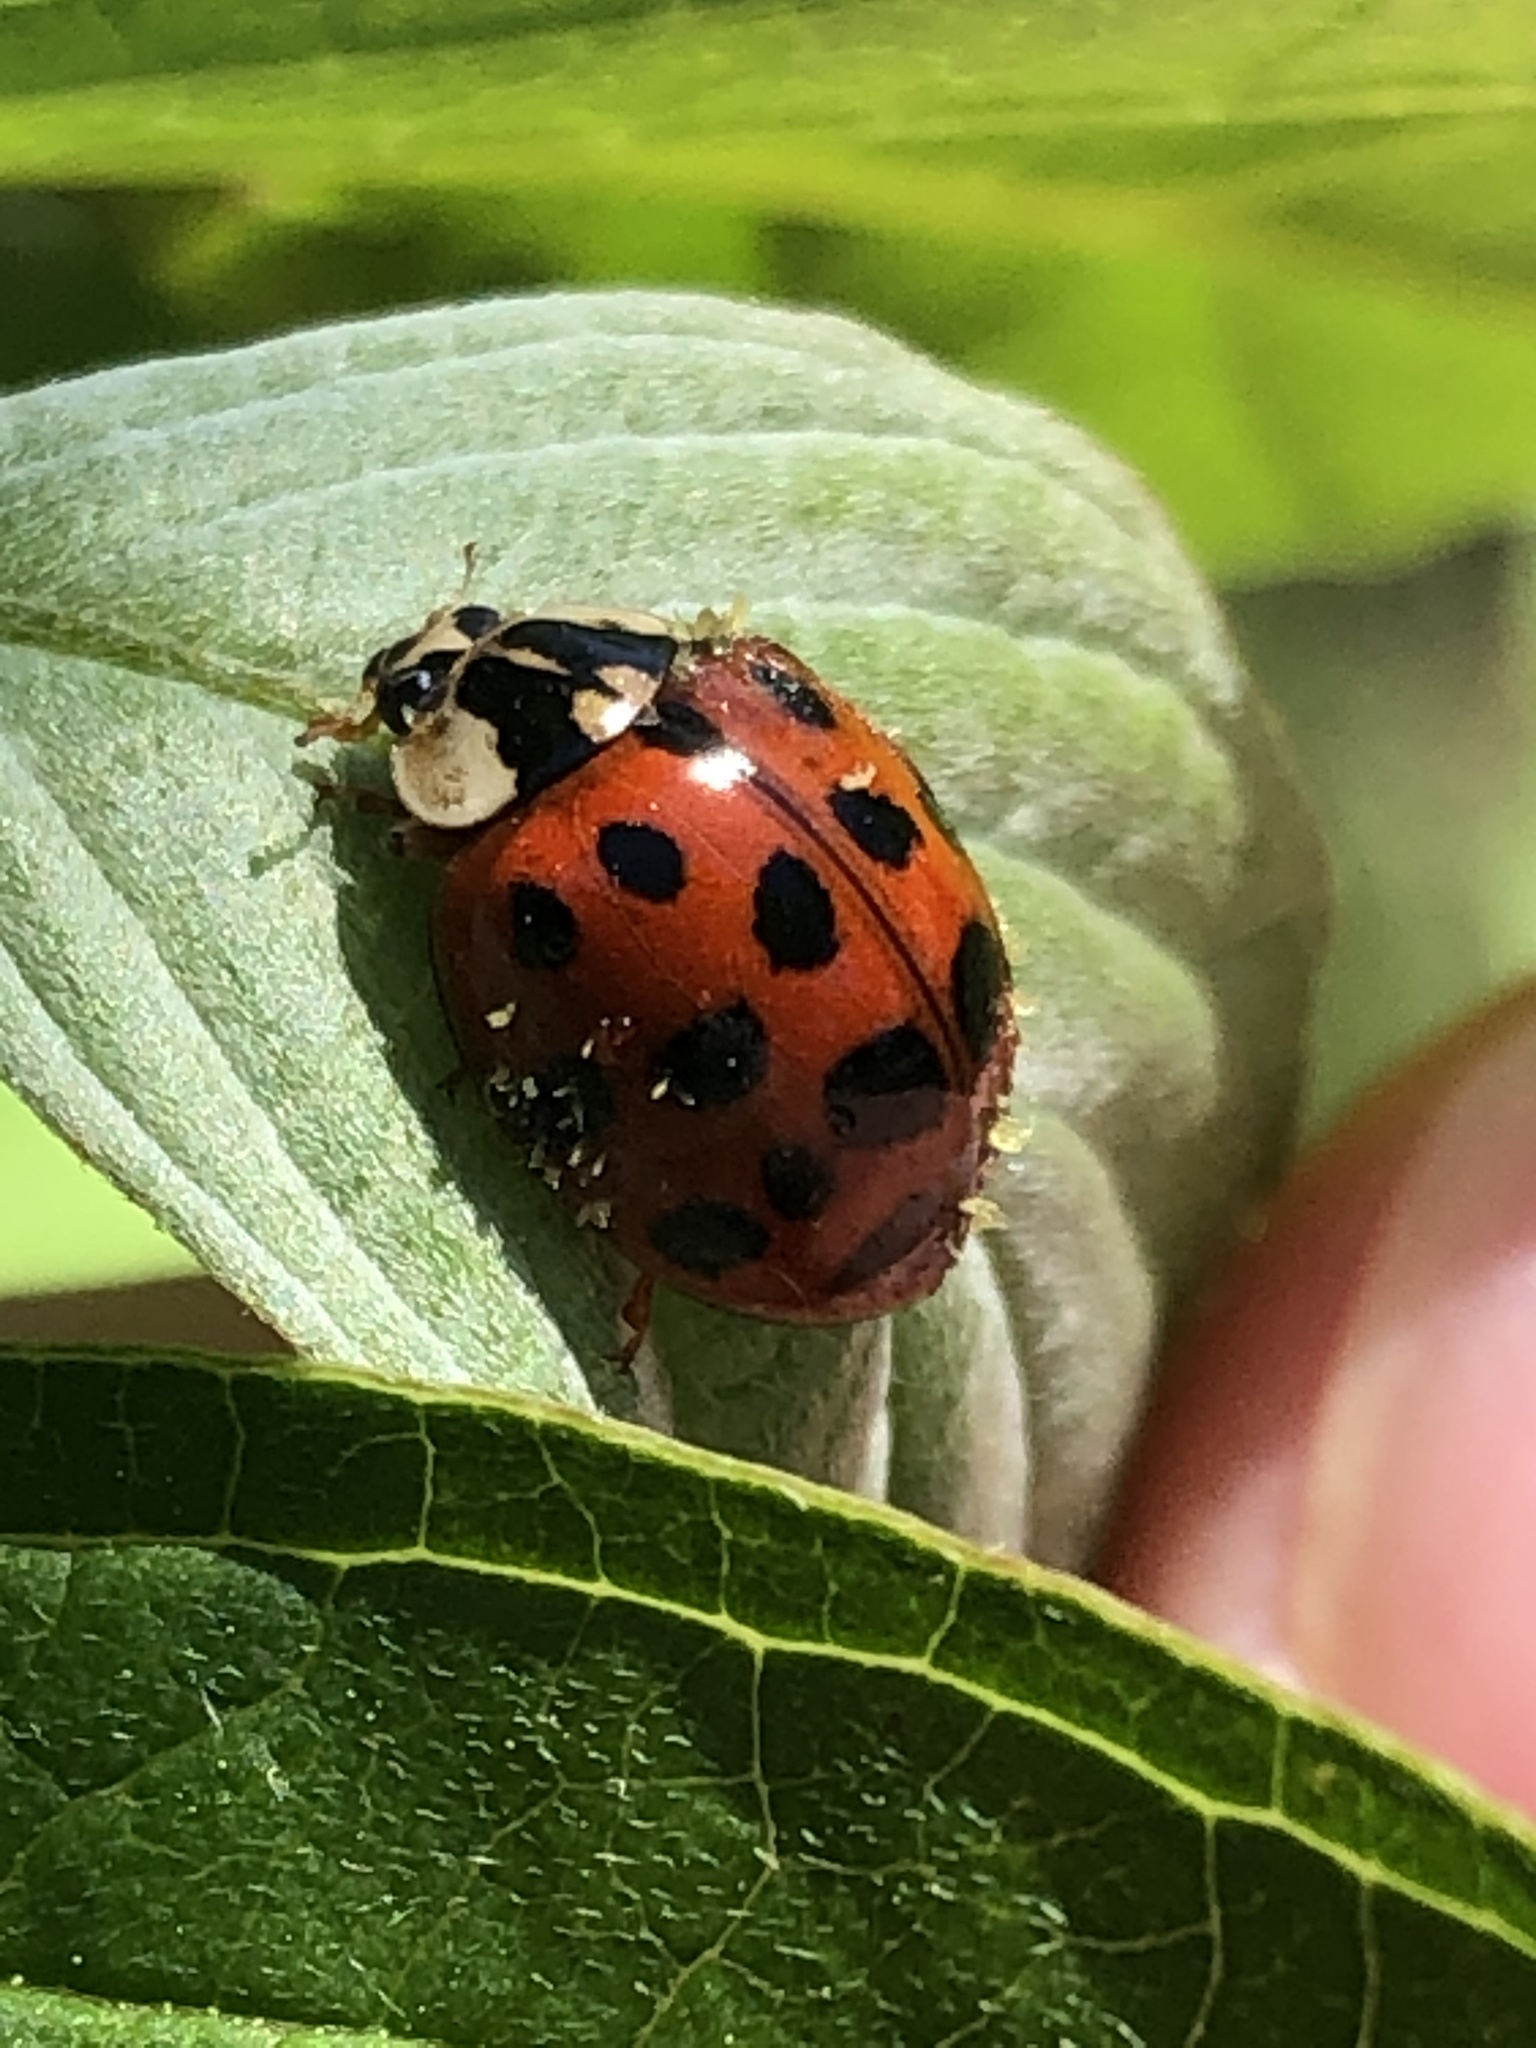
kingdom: Animalia
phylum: Arthropoda
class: Insecta
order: Coleoptera
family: Coccinellidae
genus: Harmonia
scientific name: Harmonia axyridis
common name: Harlequin ladybird
